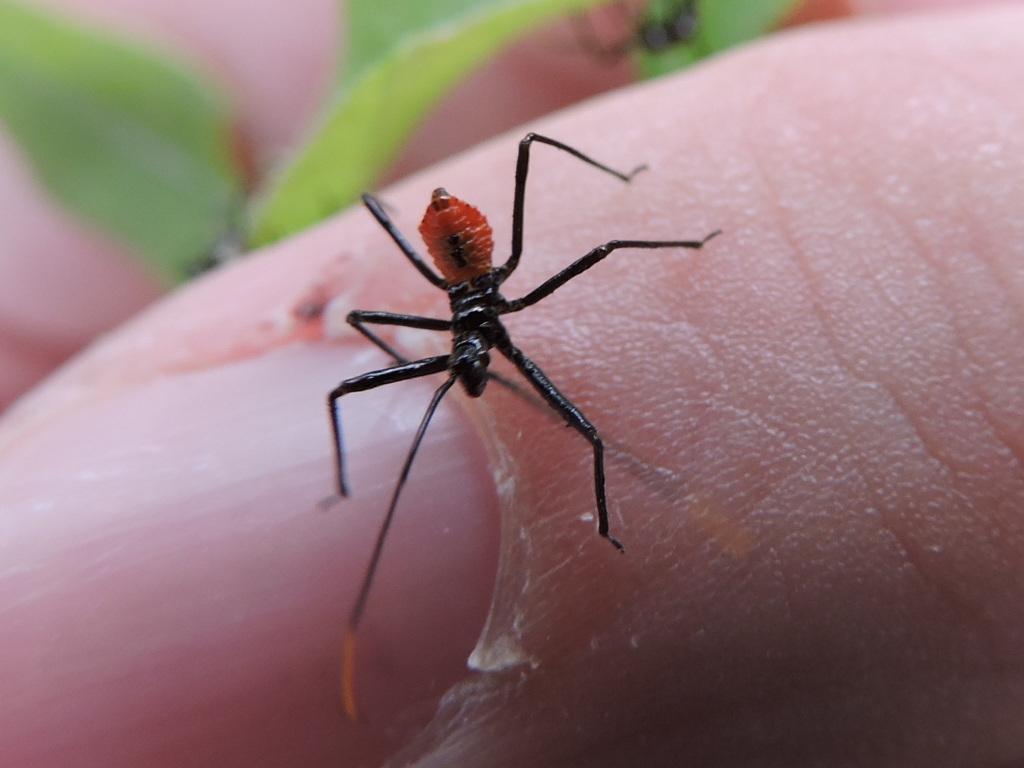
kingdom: Animalia
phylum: Arthropoda
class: Insecta
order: Hemiptera
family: Reduviidae
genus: Arilus
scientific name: Arilus cristatus
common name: North american wheel bug
